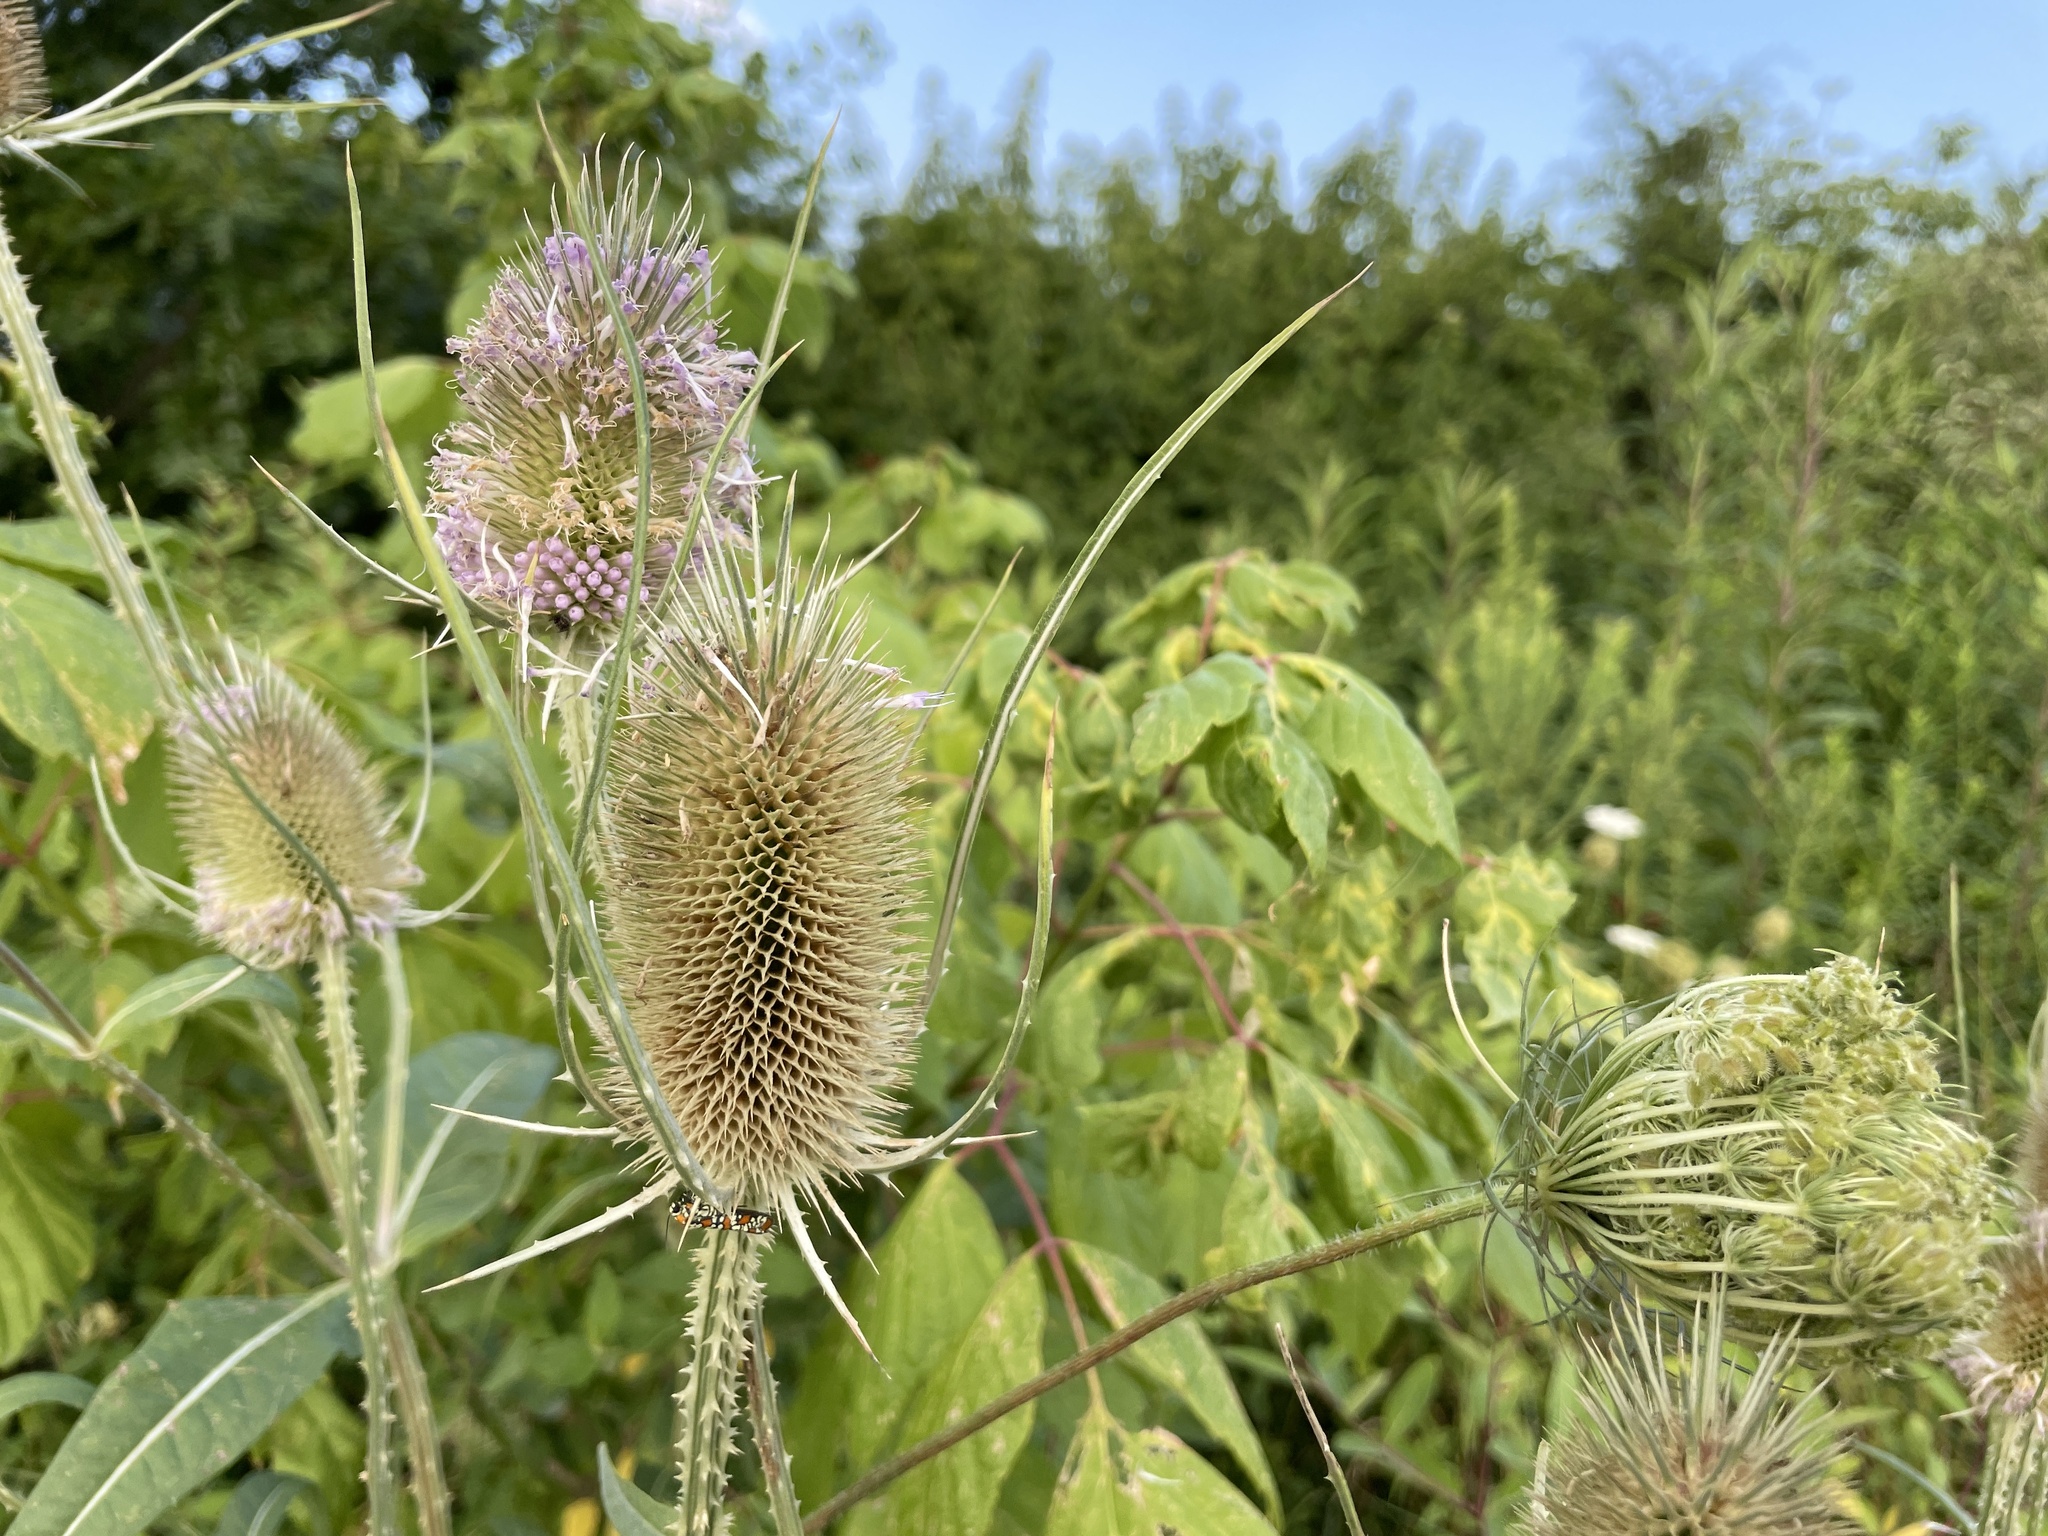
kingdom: Plantae
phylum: Tracheophyta
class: Magnoliopsida
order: Dipsacales
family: Caprifoliaceae
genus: Dipsacus
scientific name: Dipsacus fullonum
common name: Teasel
